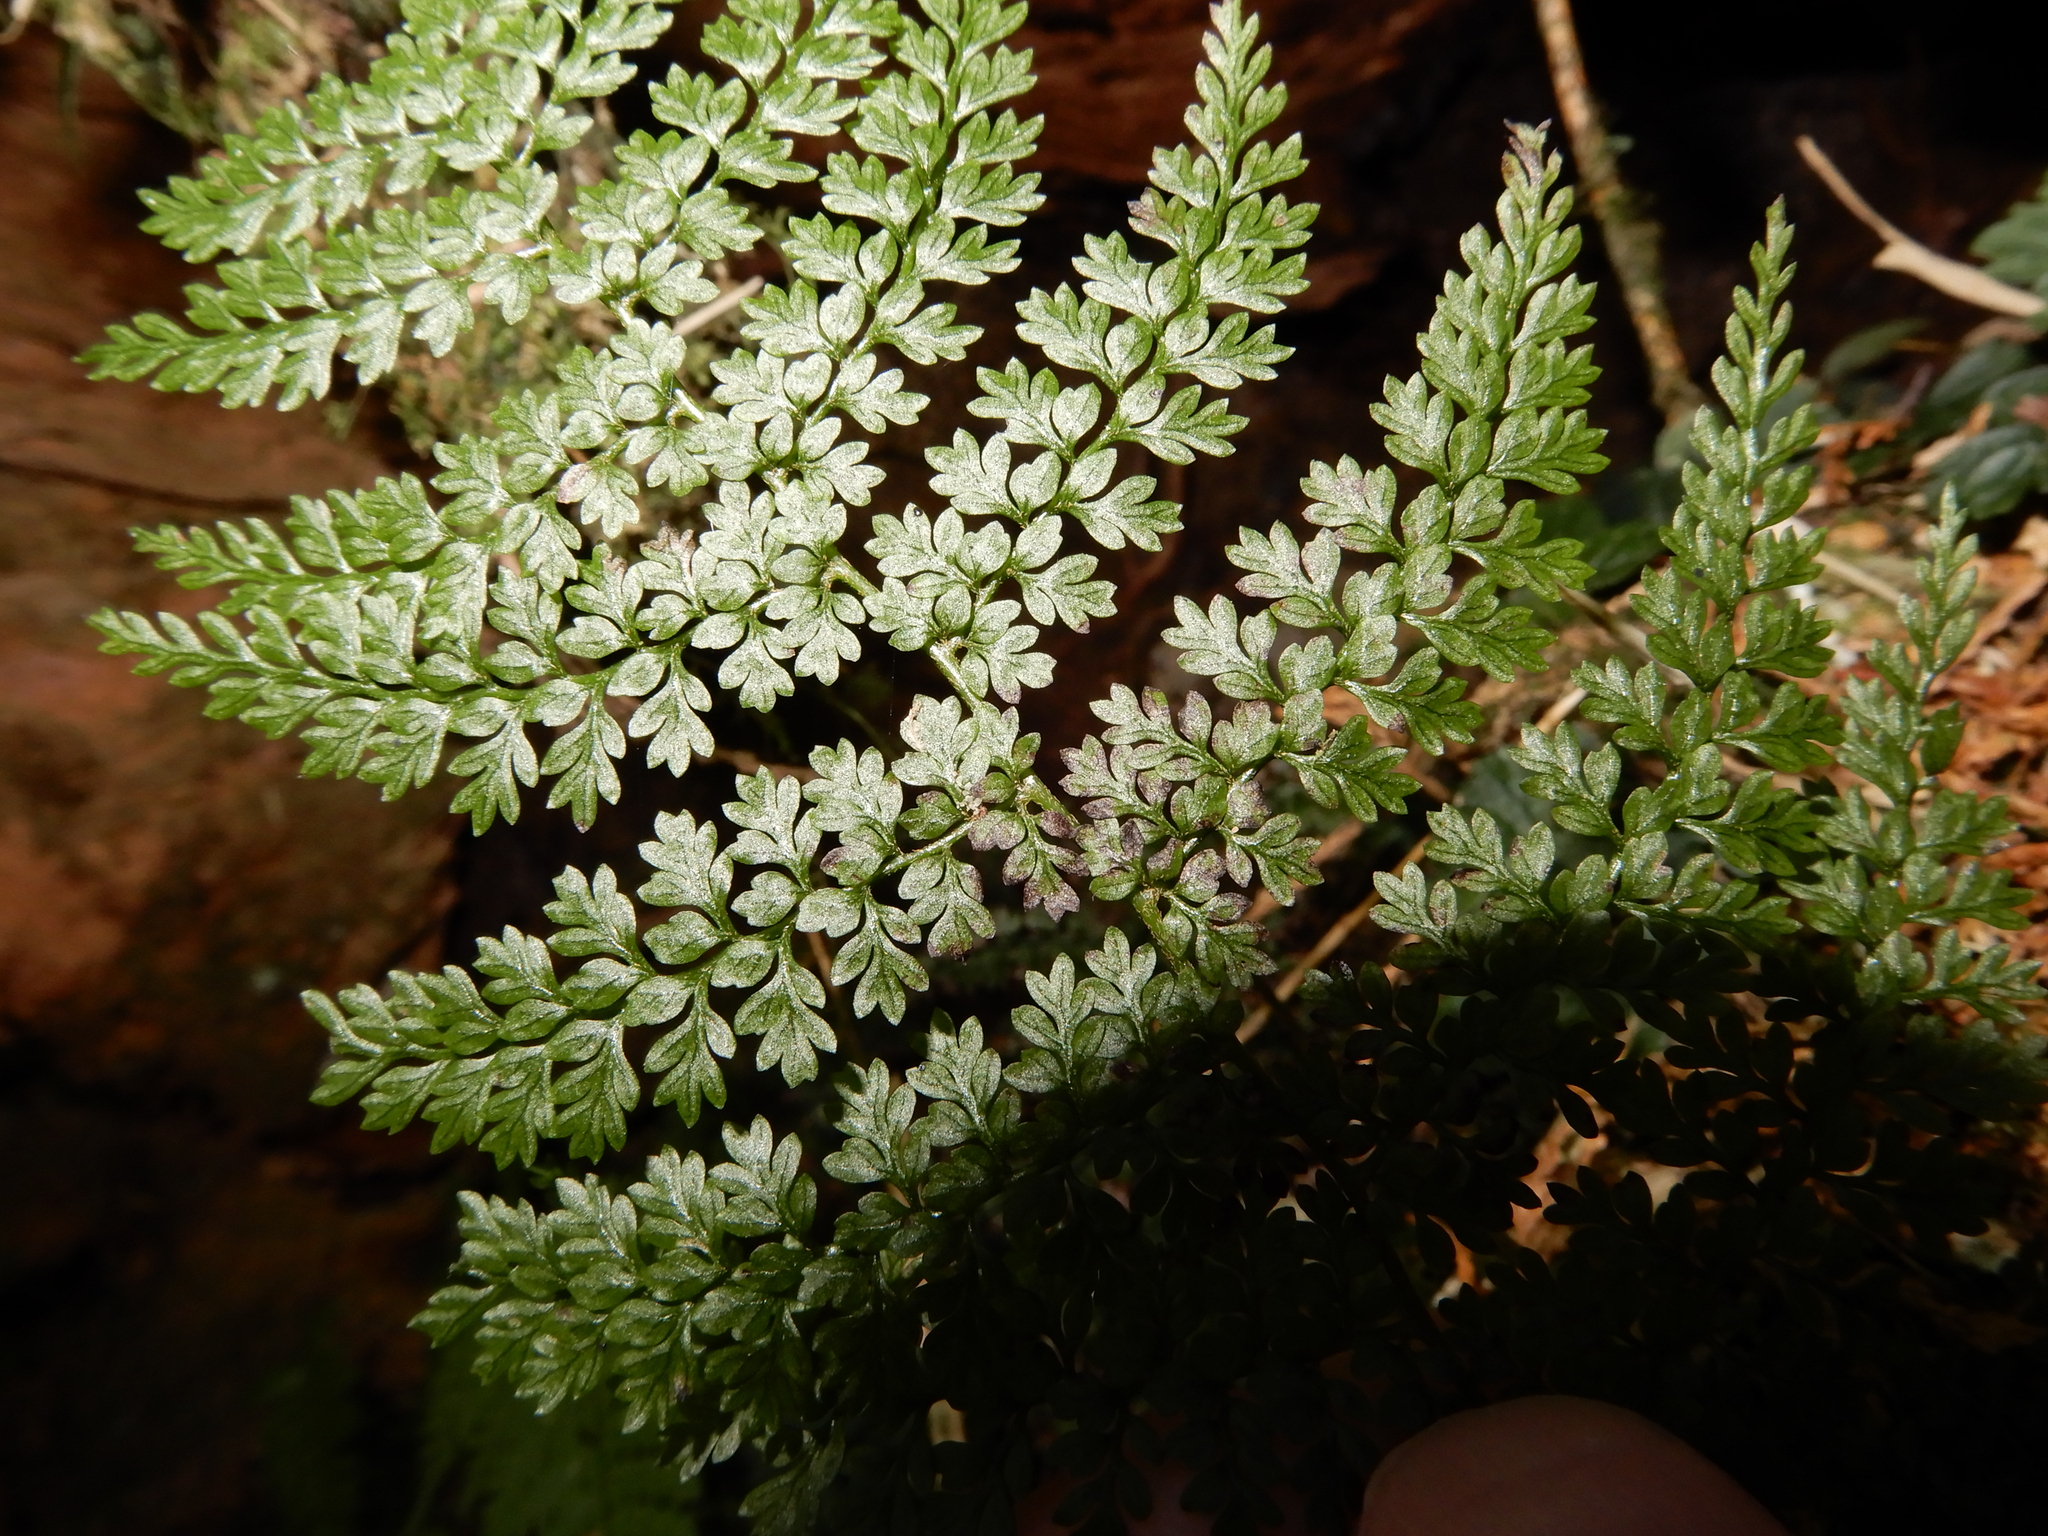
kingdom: Plantae
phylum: Tracheophyta
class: Polypodiopsida
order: Polypodiales
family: Dennstaedtiaceae
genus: Monachosorum
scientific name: Monachosorum henryi
